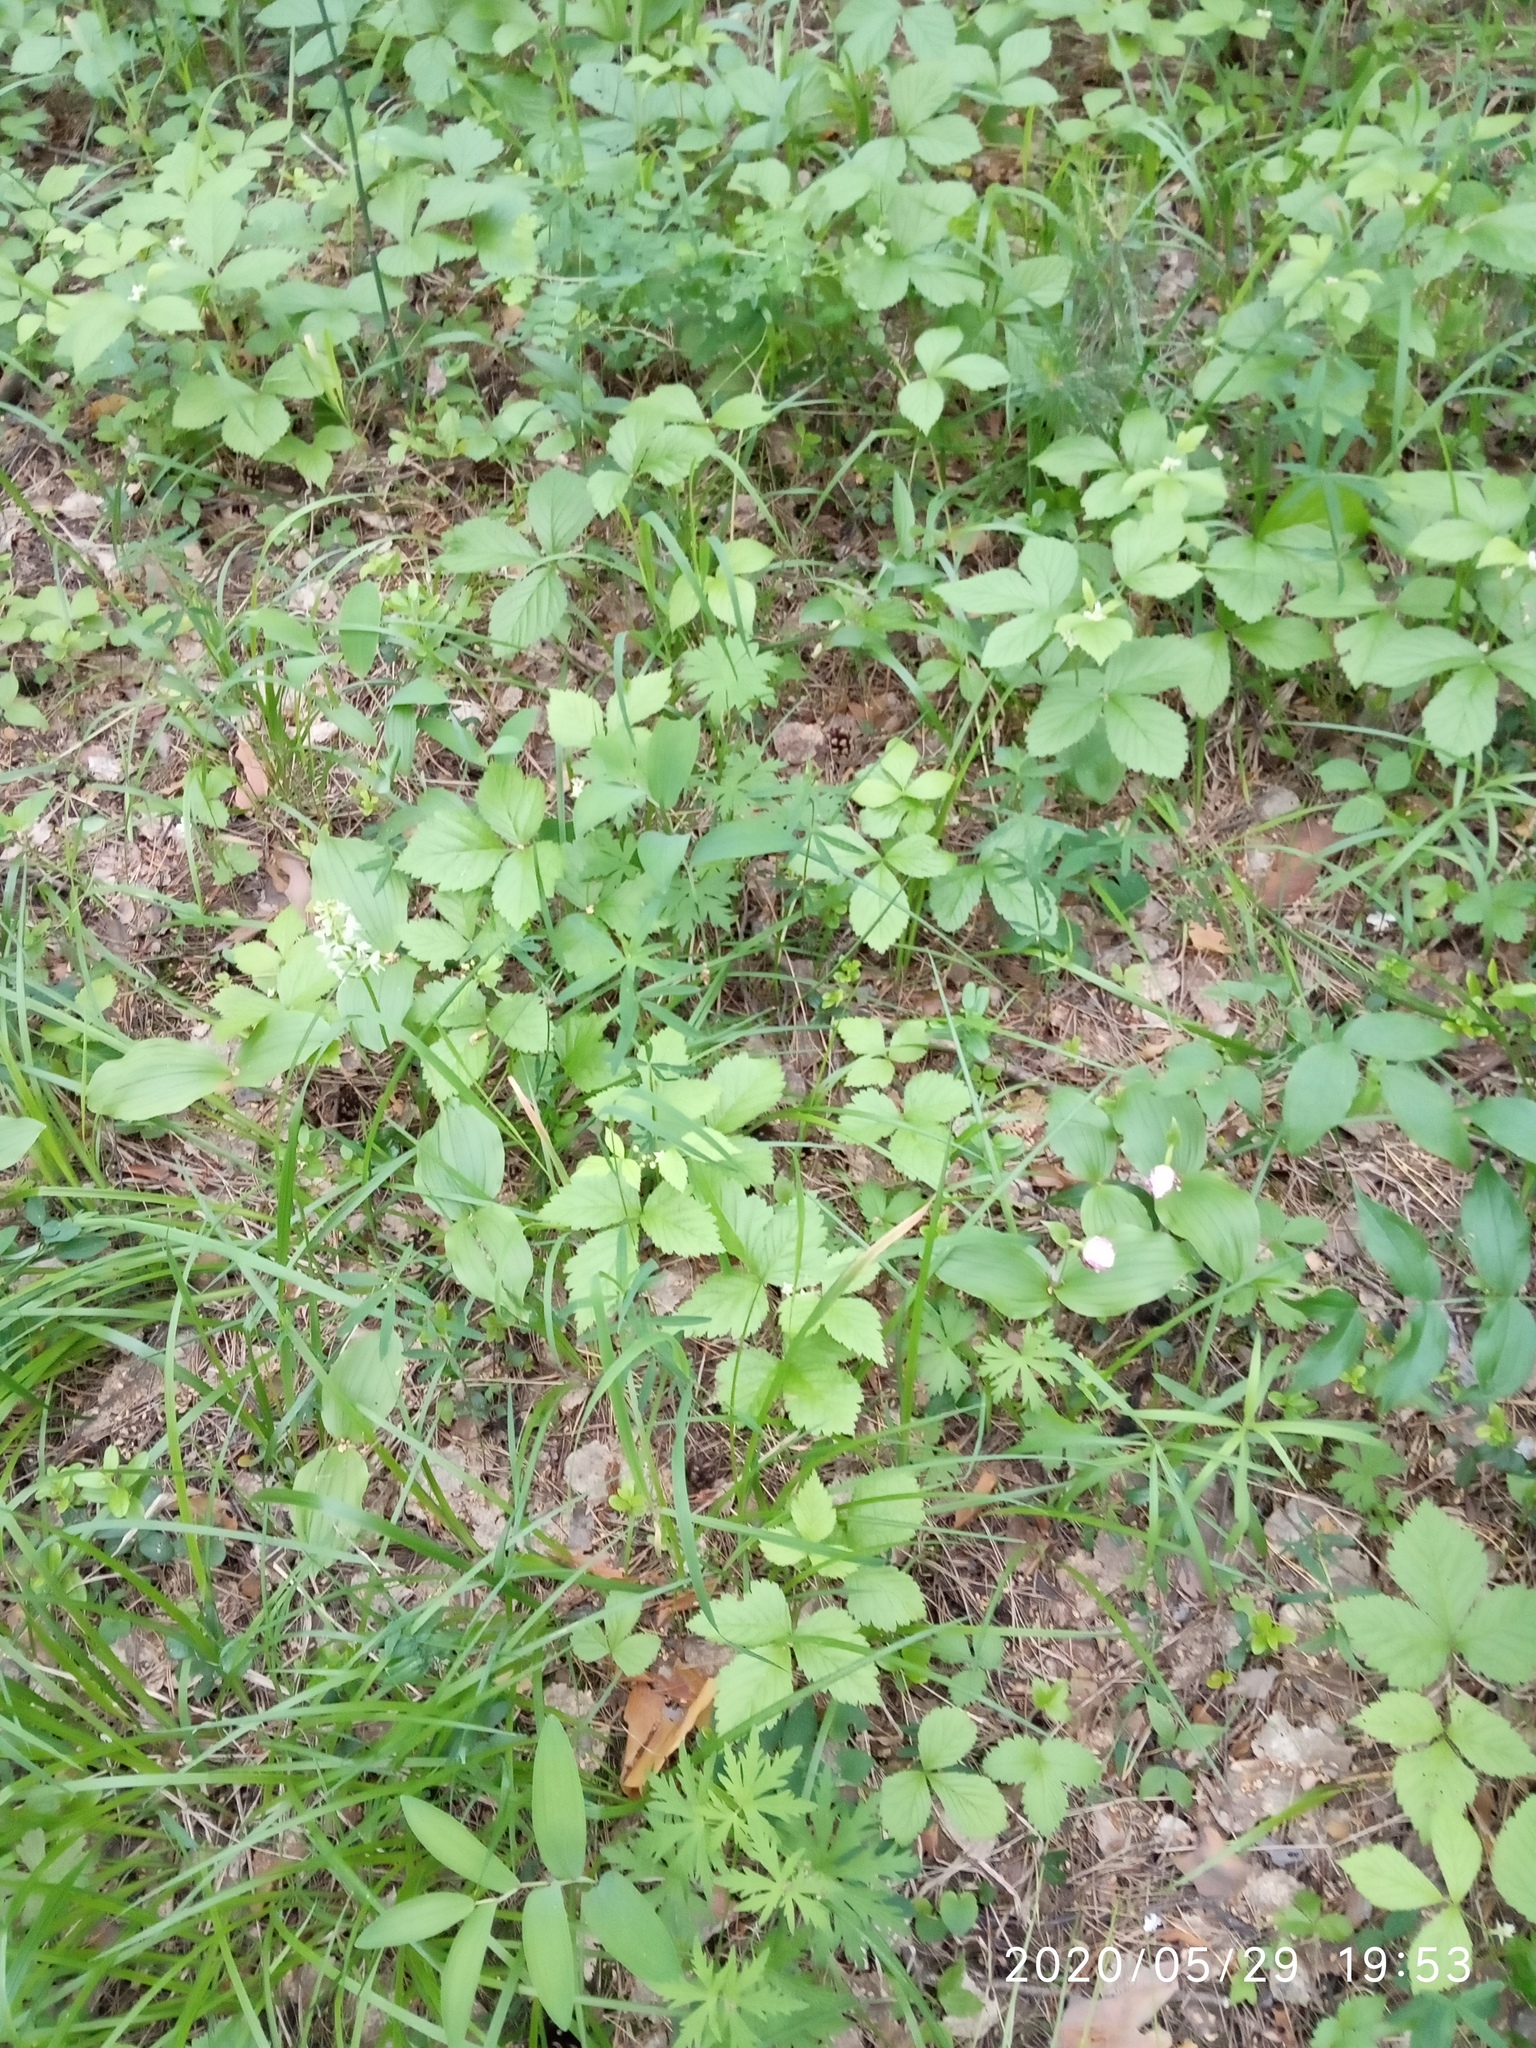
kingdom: Plantae
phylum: Tracheophyta
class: Liliopsida
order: Asparagales
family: Orchidaceae
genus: Platanthera
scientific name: Platanthera bifolia
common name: Lesser butterfly-orchid
